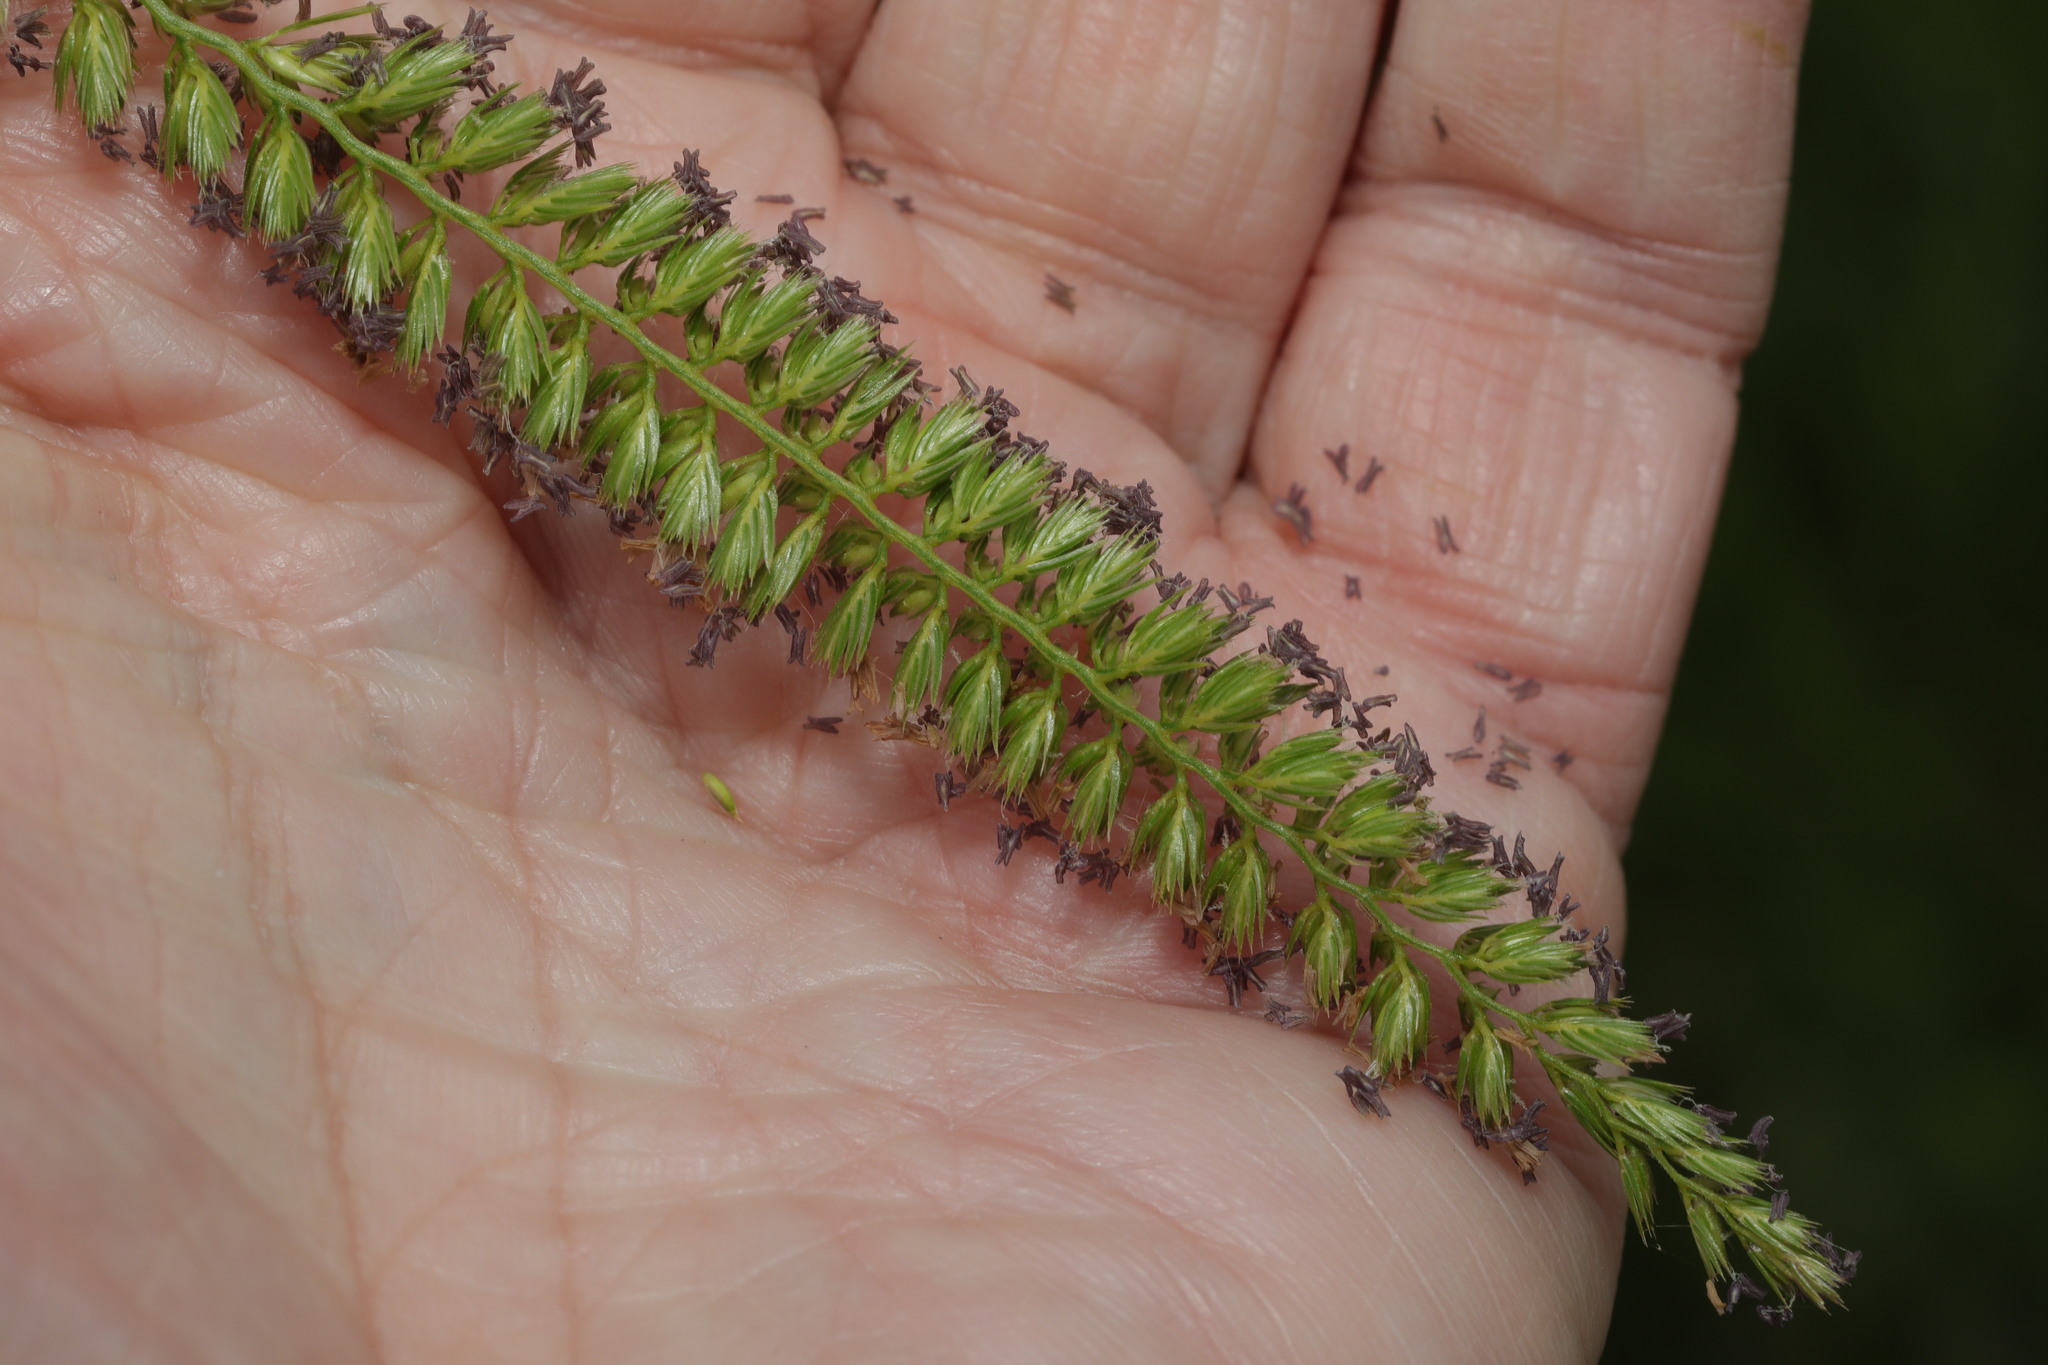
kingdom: Plantae
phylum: Tracheophyta
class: Liliopsida
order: Poales
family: Poaceae
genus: Cynosurus
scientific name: Cynosurus cristatus
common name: Crested dog's-tail
